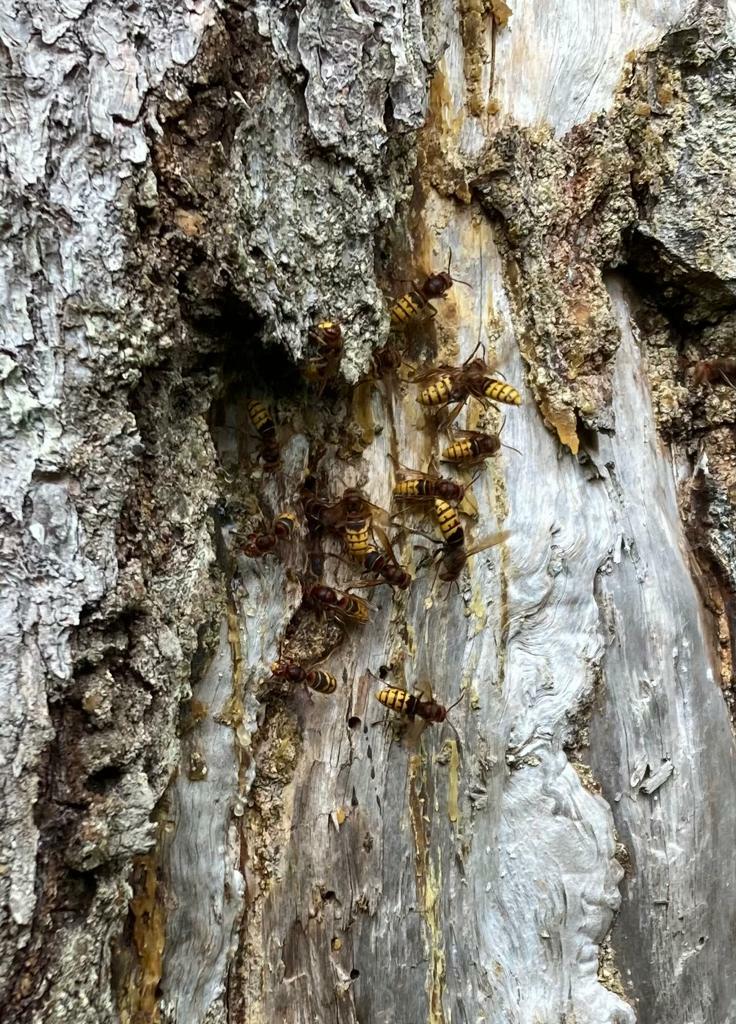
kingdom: Animalia
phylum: Arthropoda
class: Insecta
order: Hymenoptera
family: Vespidae
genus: Vespa
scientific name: Vespa crabro
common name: Hornet
